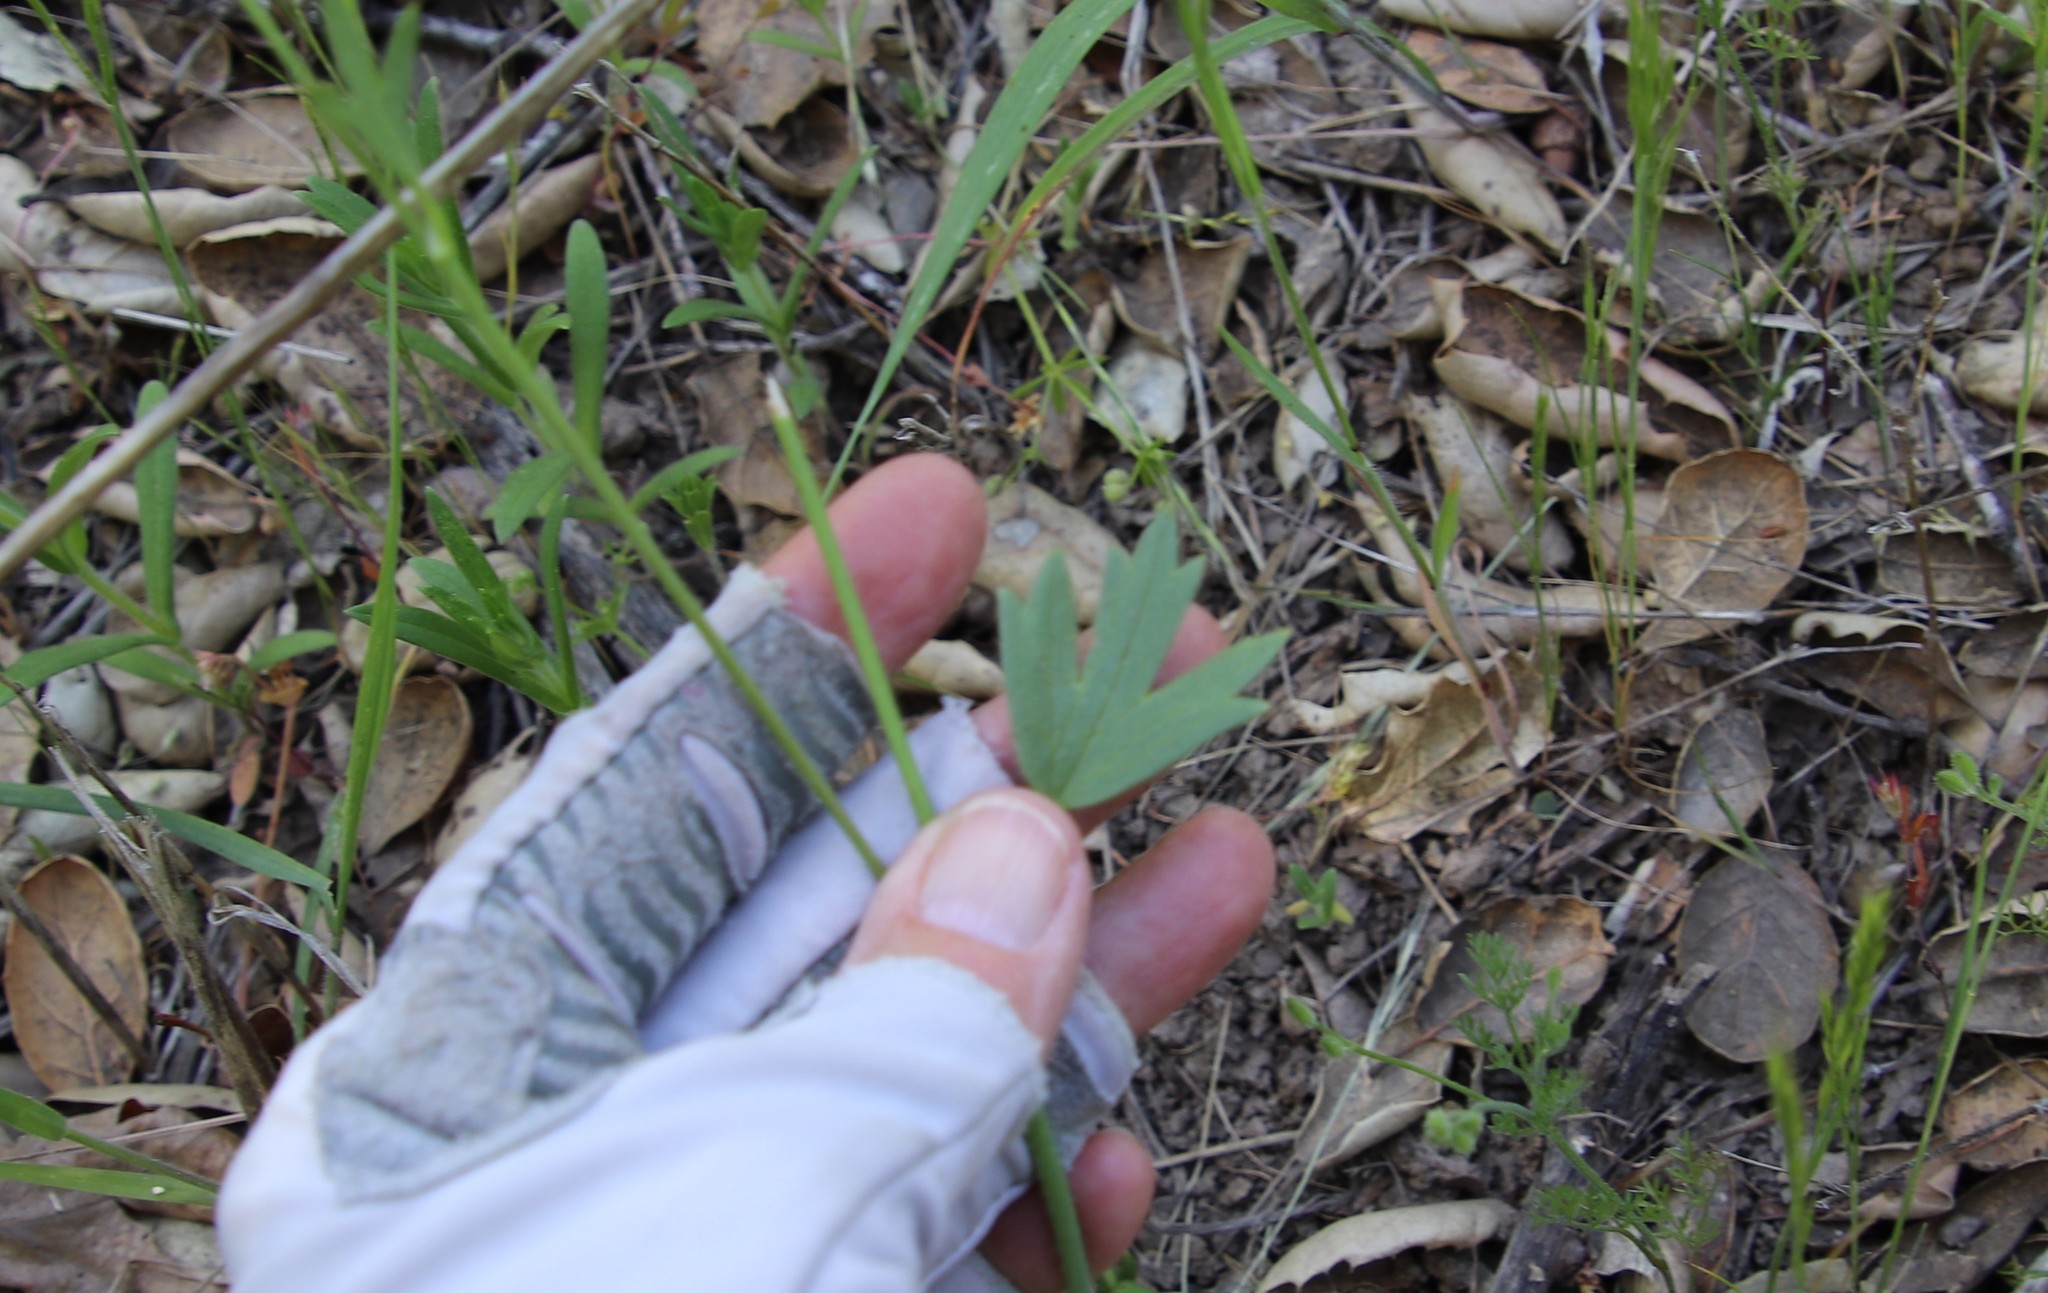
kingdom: Plantae
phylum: Tracheophyta
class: Magnoliopsida
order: Ranunculales
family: Ranunculaceae
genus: Ranunculus
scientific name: Ranunculus californicus
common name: California buttercup
